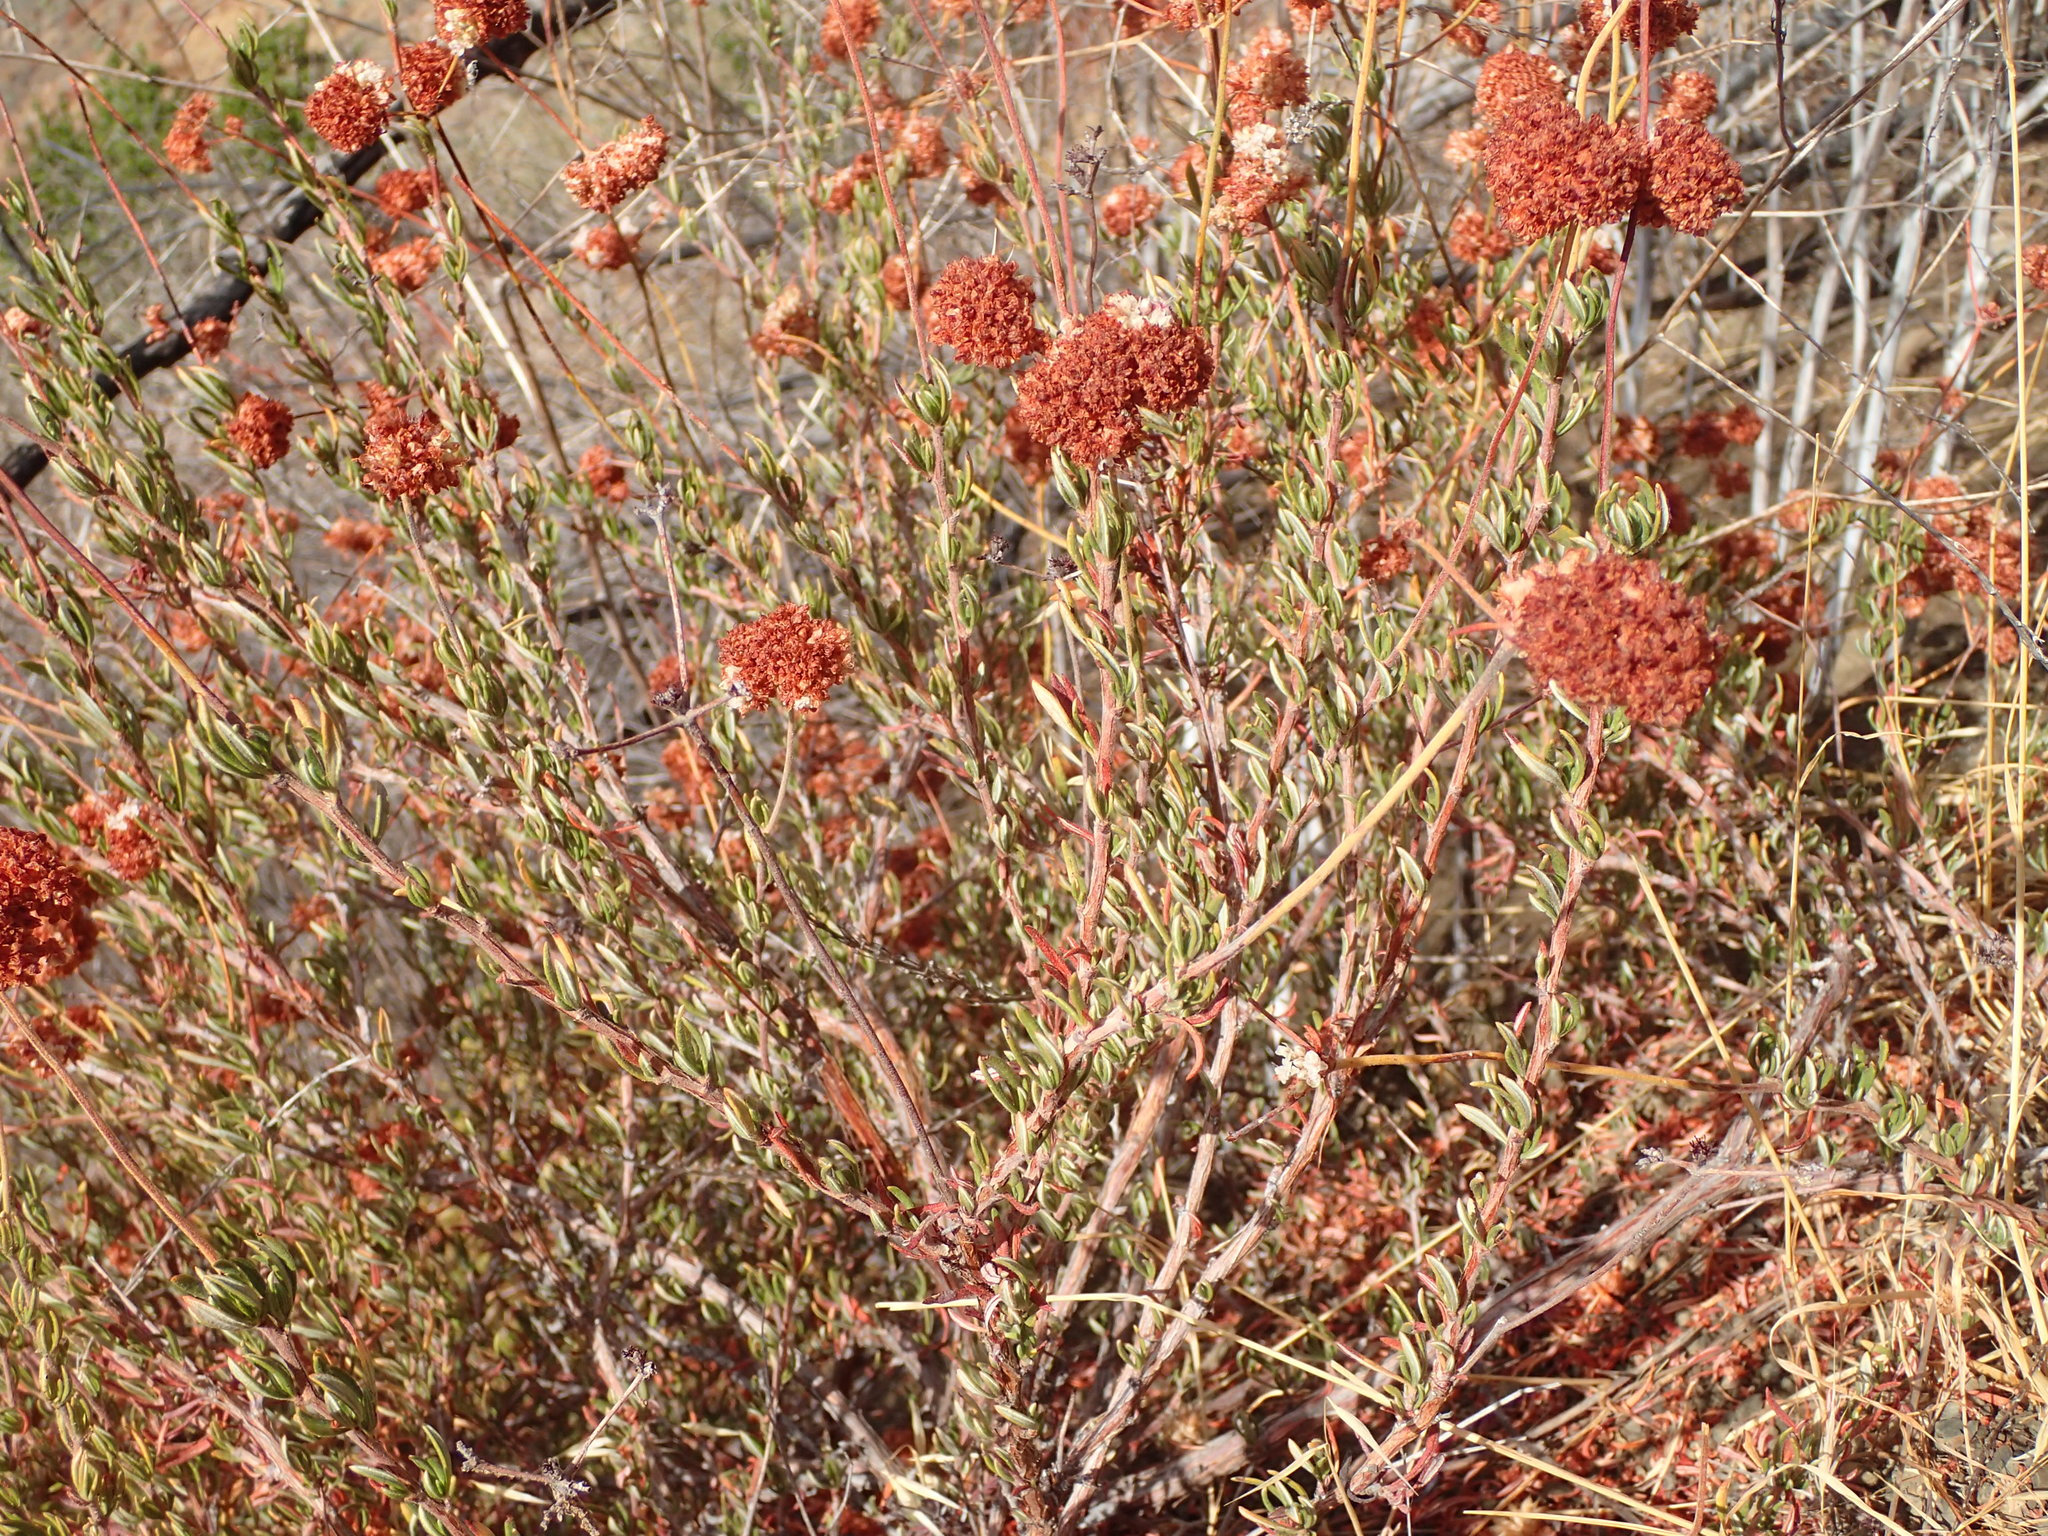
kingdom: Plantae
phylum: Tracheophyta
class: Magnoliopsida
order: Caryophyllales
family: Polygonaceae
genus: Eriogonum
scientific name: Eriogonum fasciculatum
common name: California wild buckwheat
